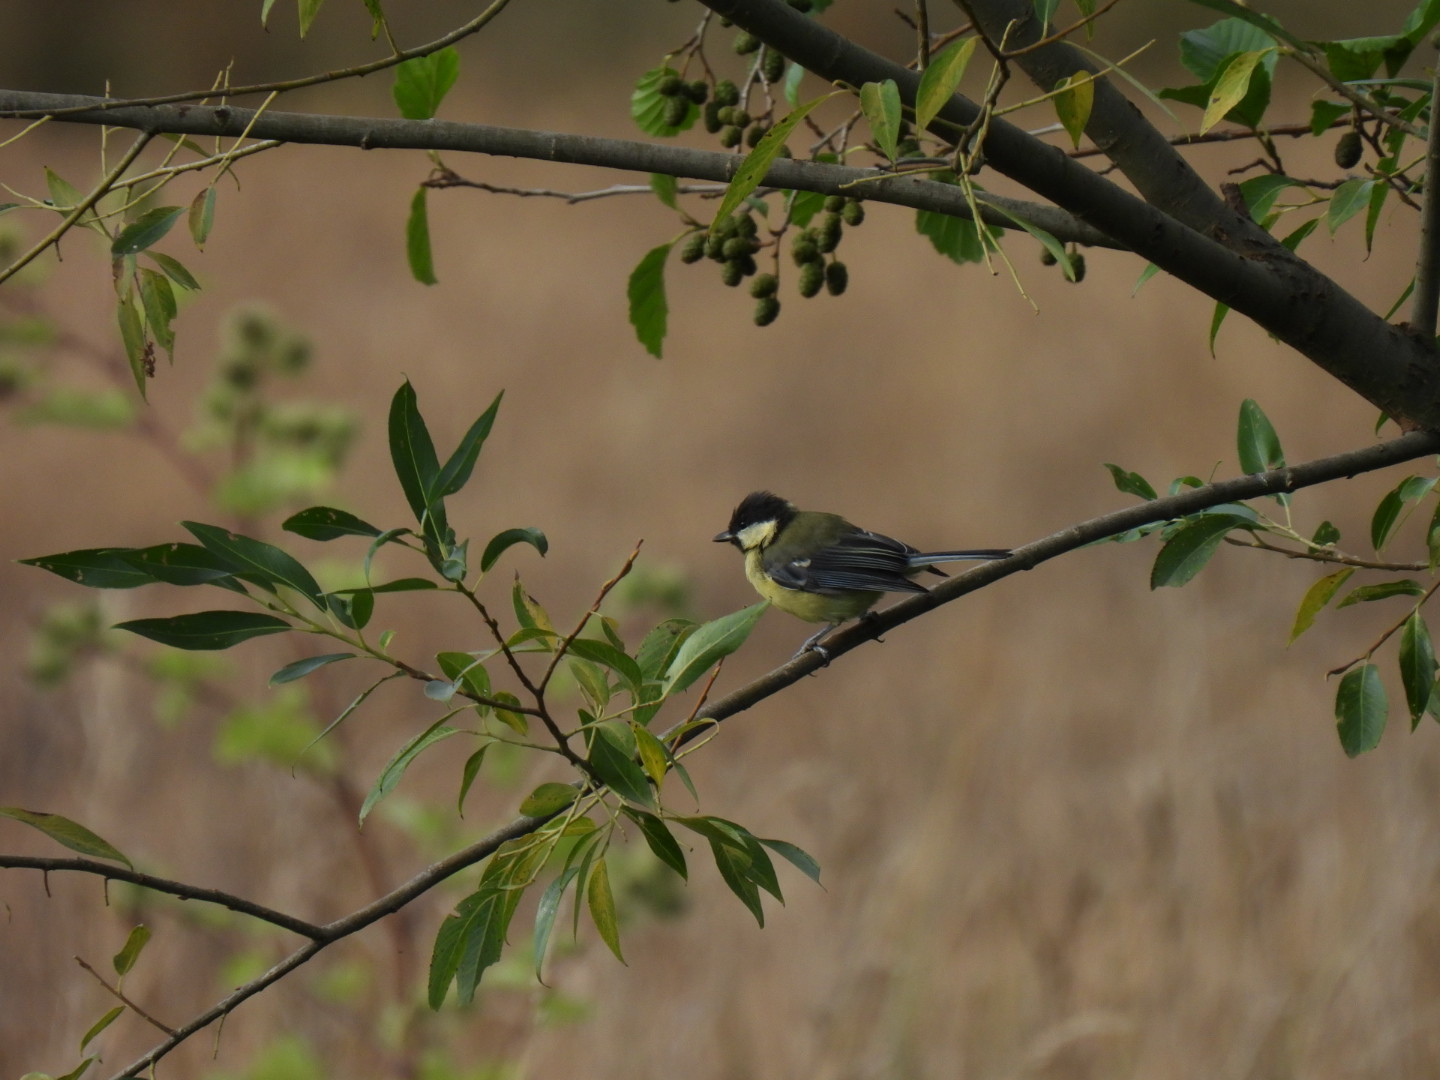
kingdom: Animalia
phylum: Chordata
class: Aves
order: Passeriformes
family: Paridae
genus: Parus
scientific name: Parus major
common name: Great tit
